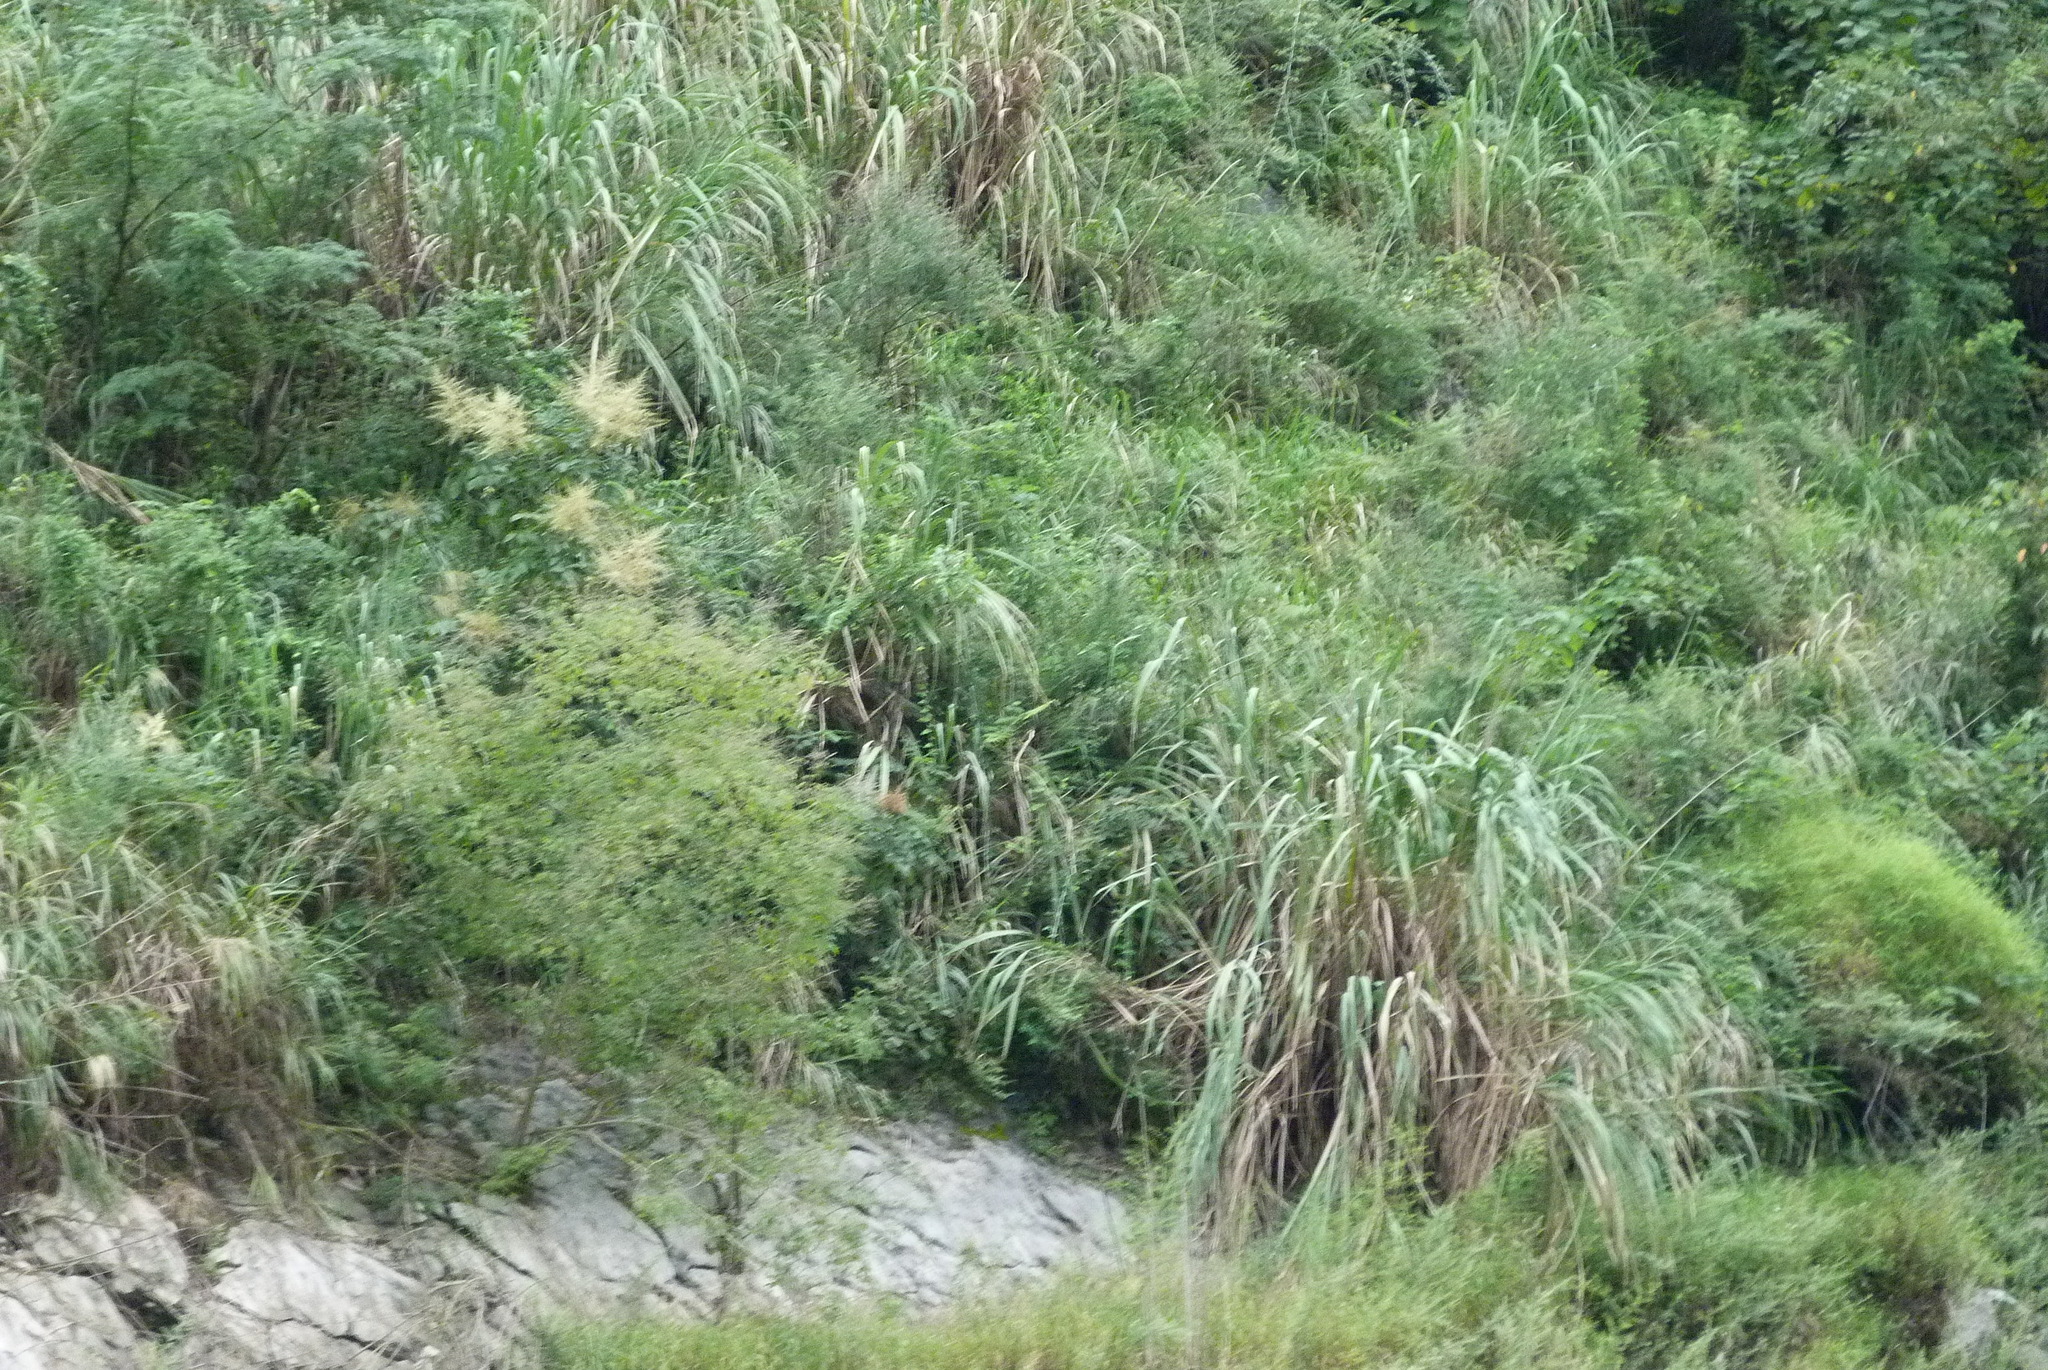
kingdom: Plantae
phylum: Tracheophyta
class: Liliopsida
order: Poales
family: Poaceae
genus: Arundo
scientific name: Arundo donax
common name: Giant reed
